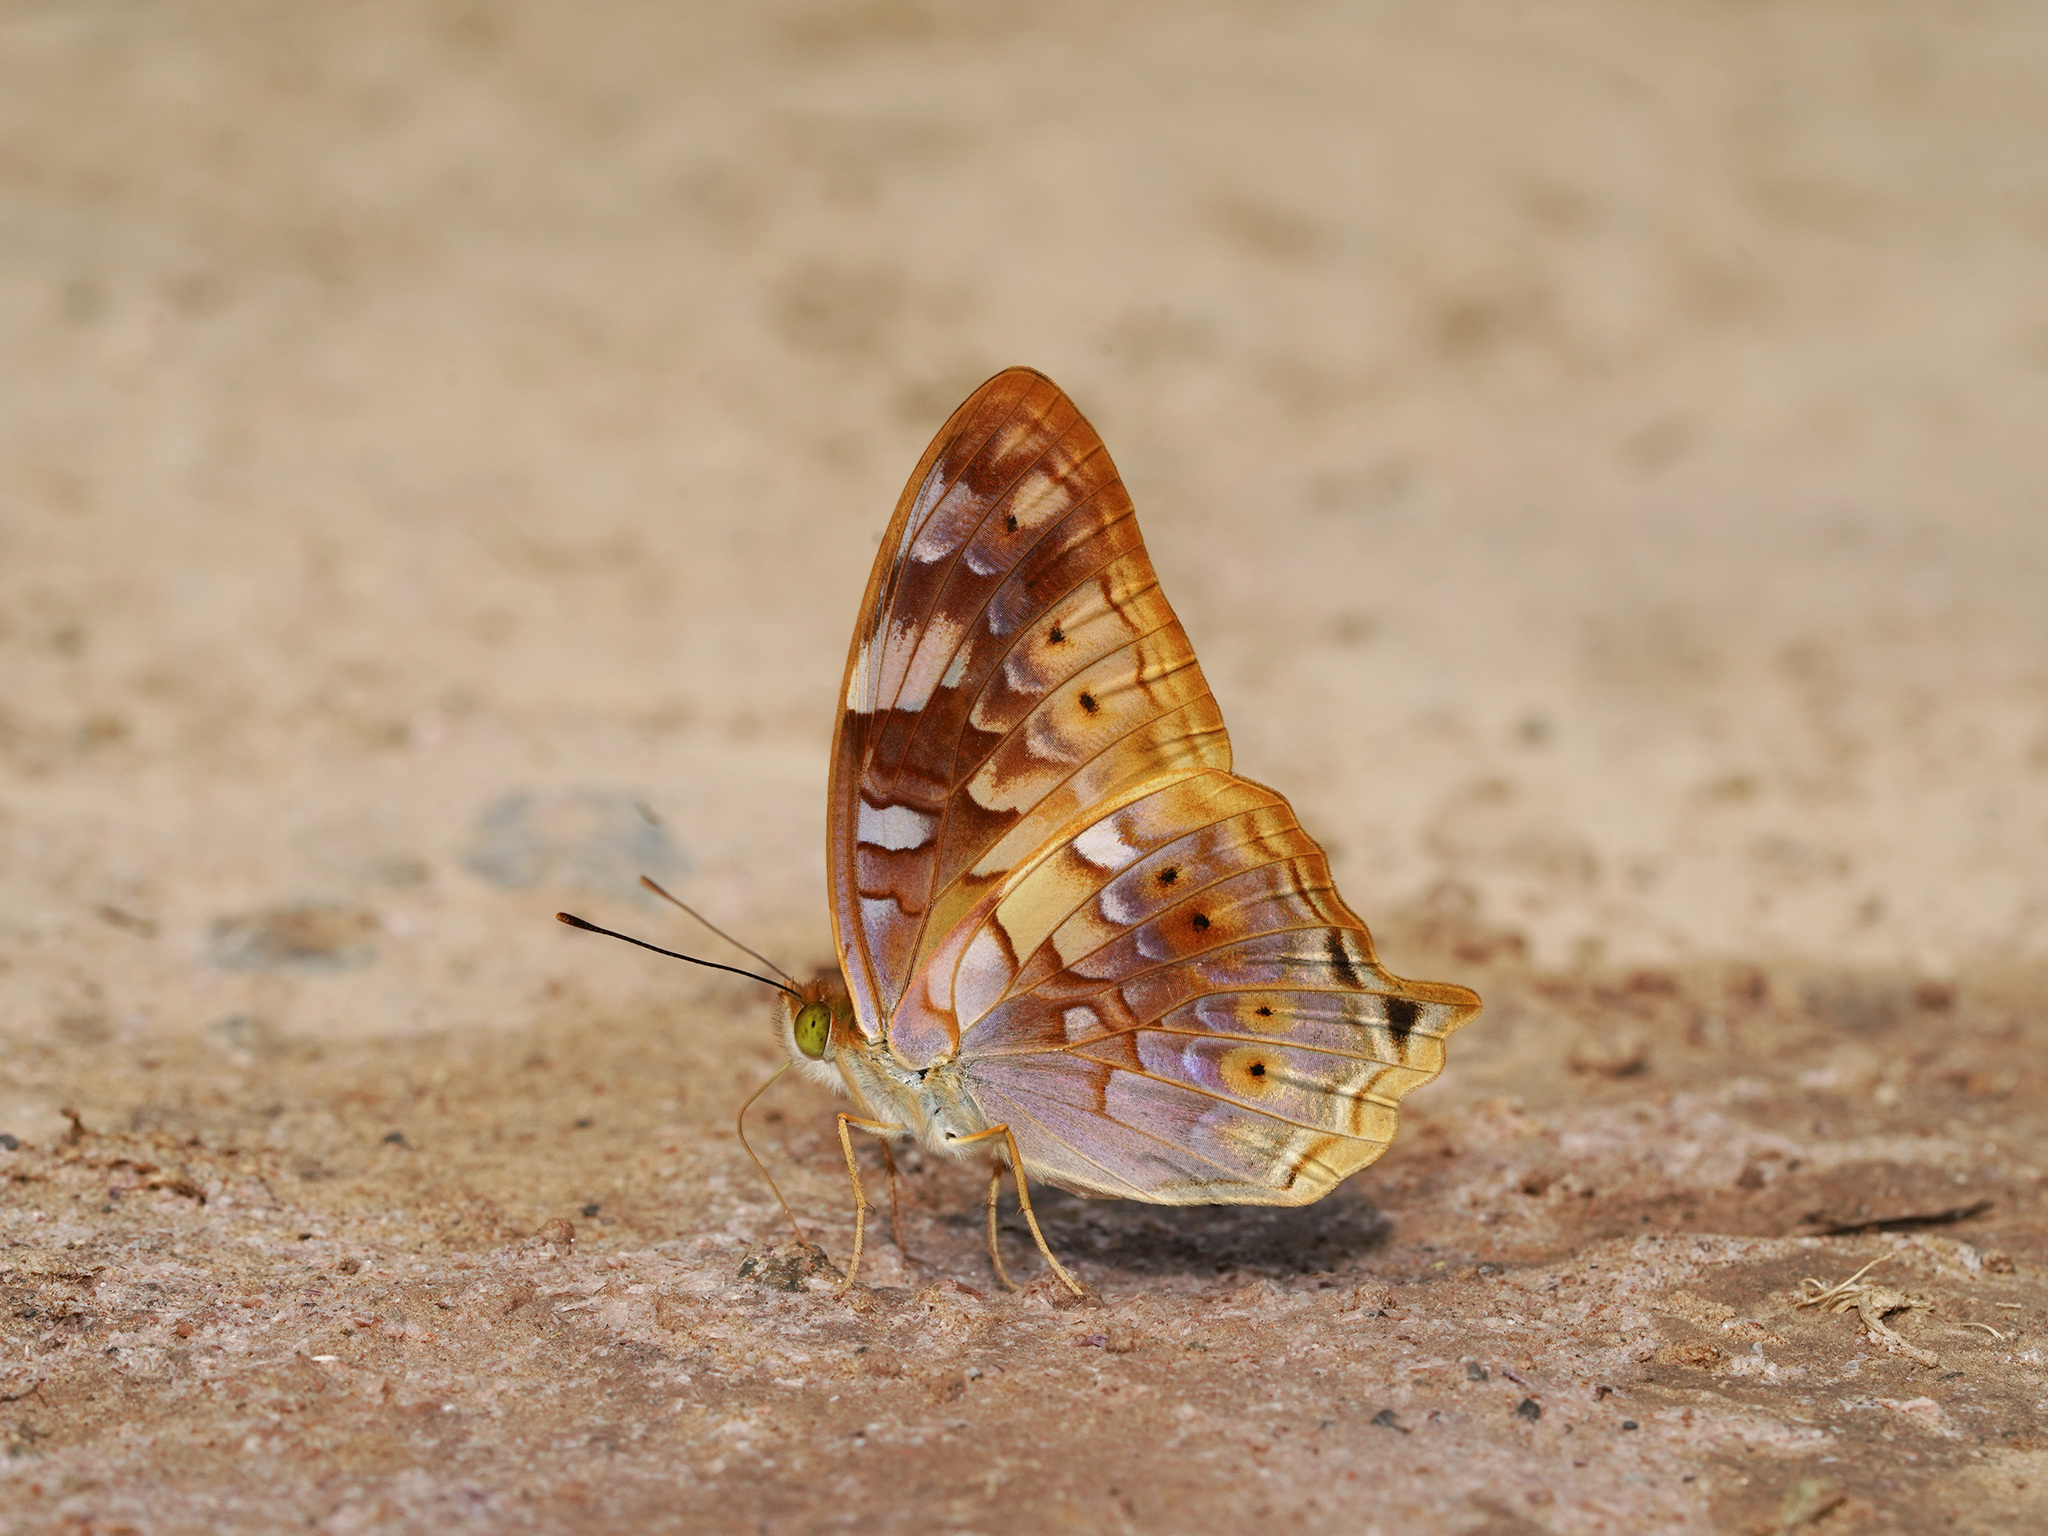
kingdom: Animalia
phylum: Arthropoda
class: Insecta
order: Lepidoptera
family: Nymphalidae
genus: Vagrans
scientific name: Vagrans sinha
